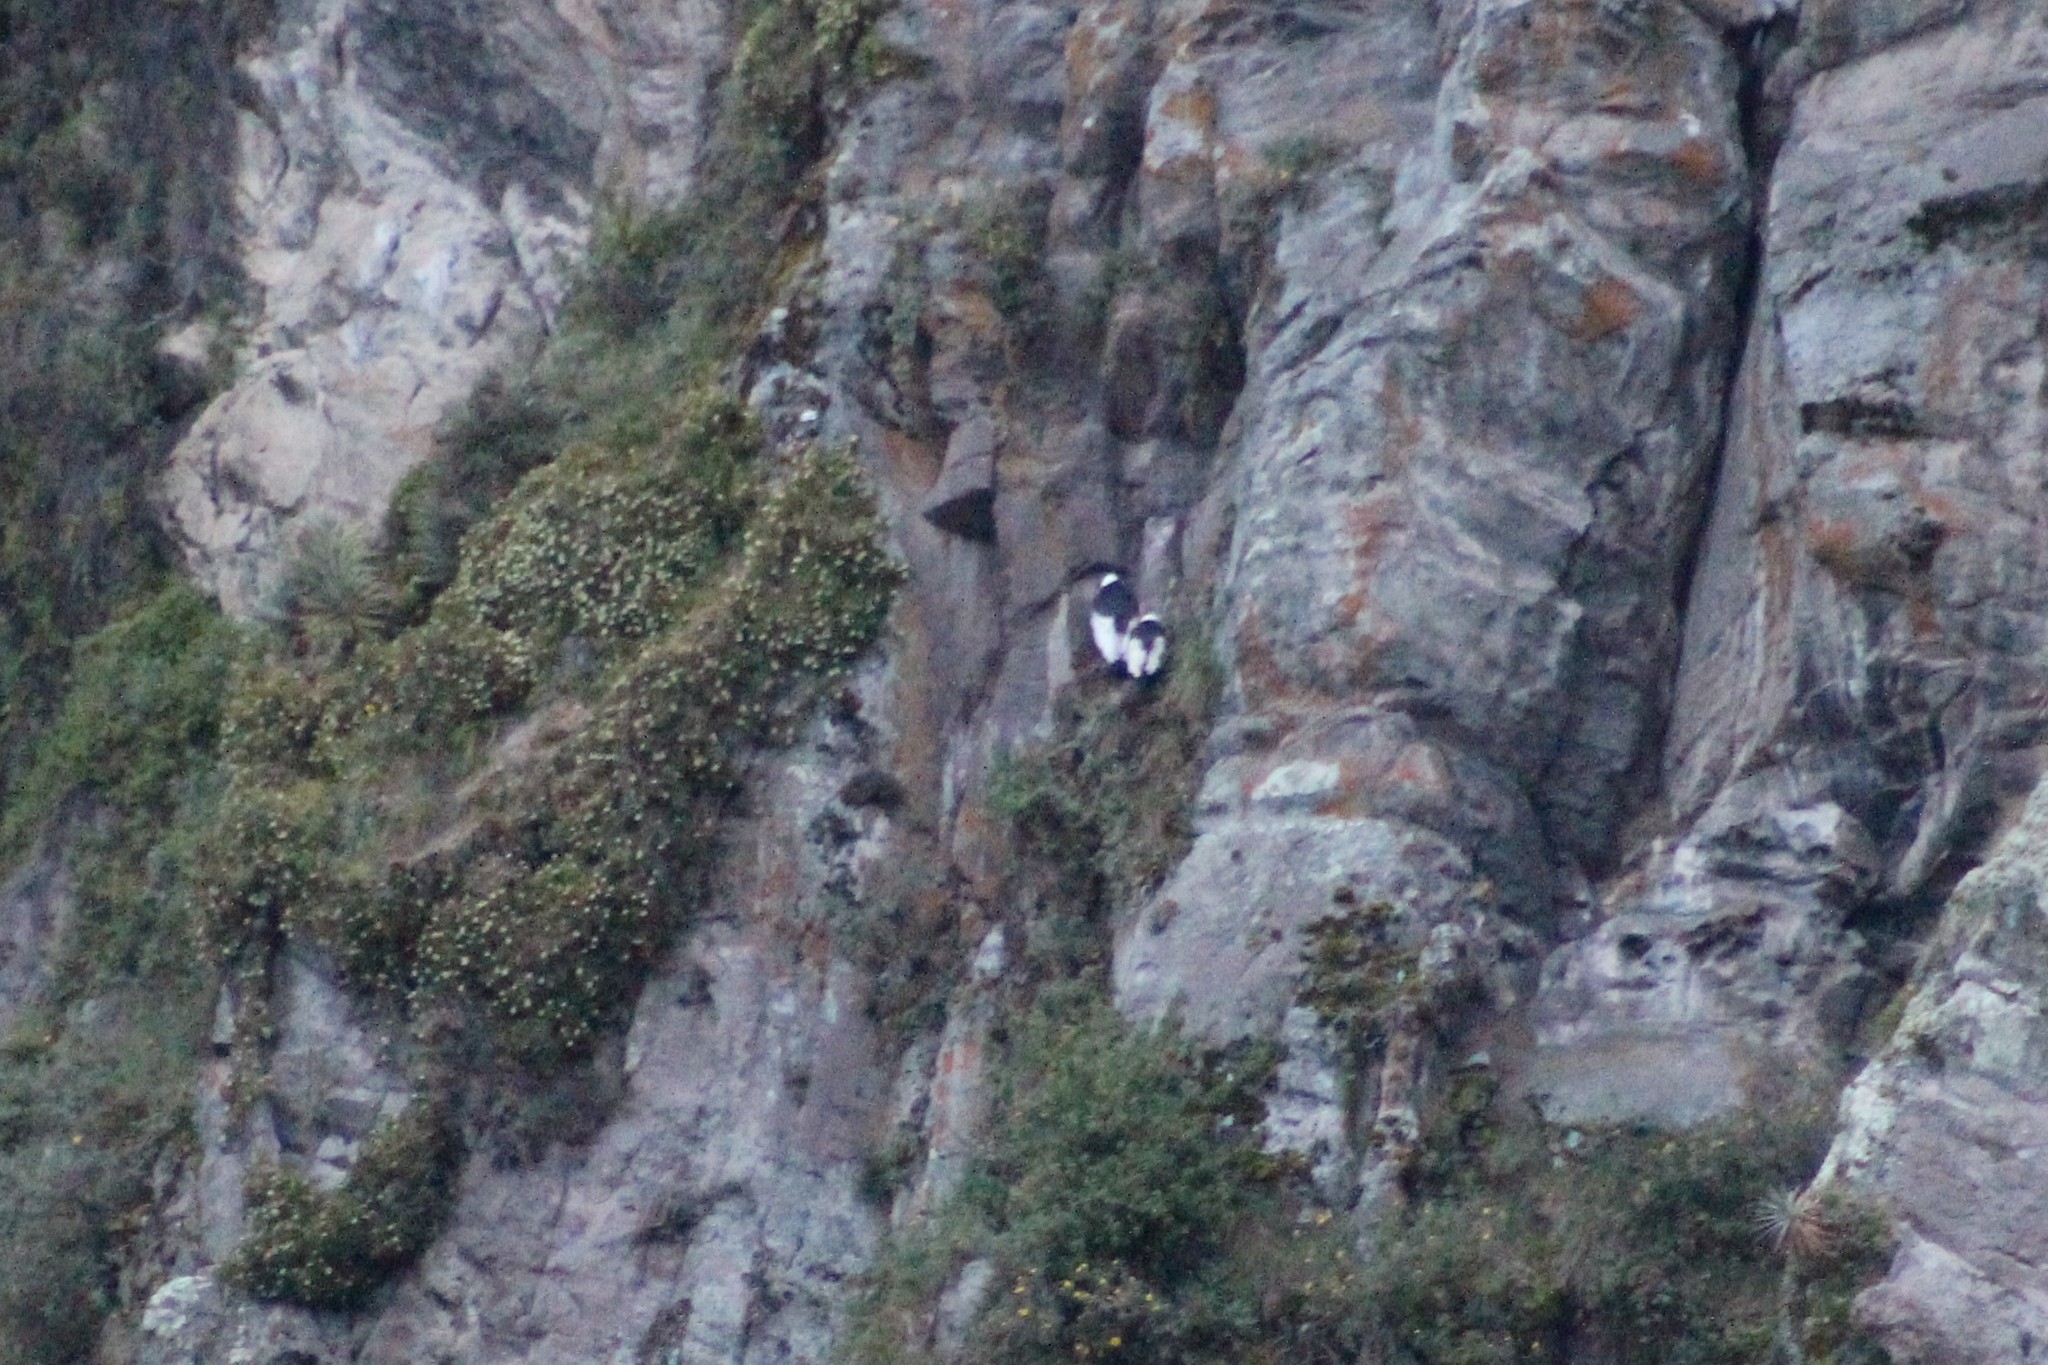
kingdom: Animalia
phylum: Chordata
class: Aves
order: Accipitriformes
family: Cathartidae
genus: Vultur
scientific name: Vultur gryphus
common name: Andean condor
